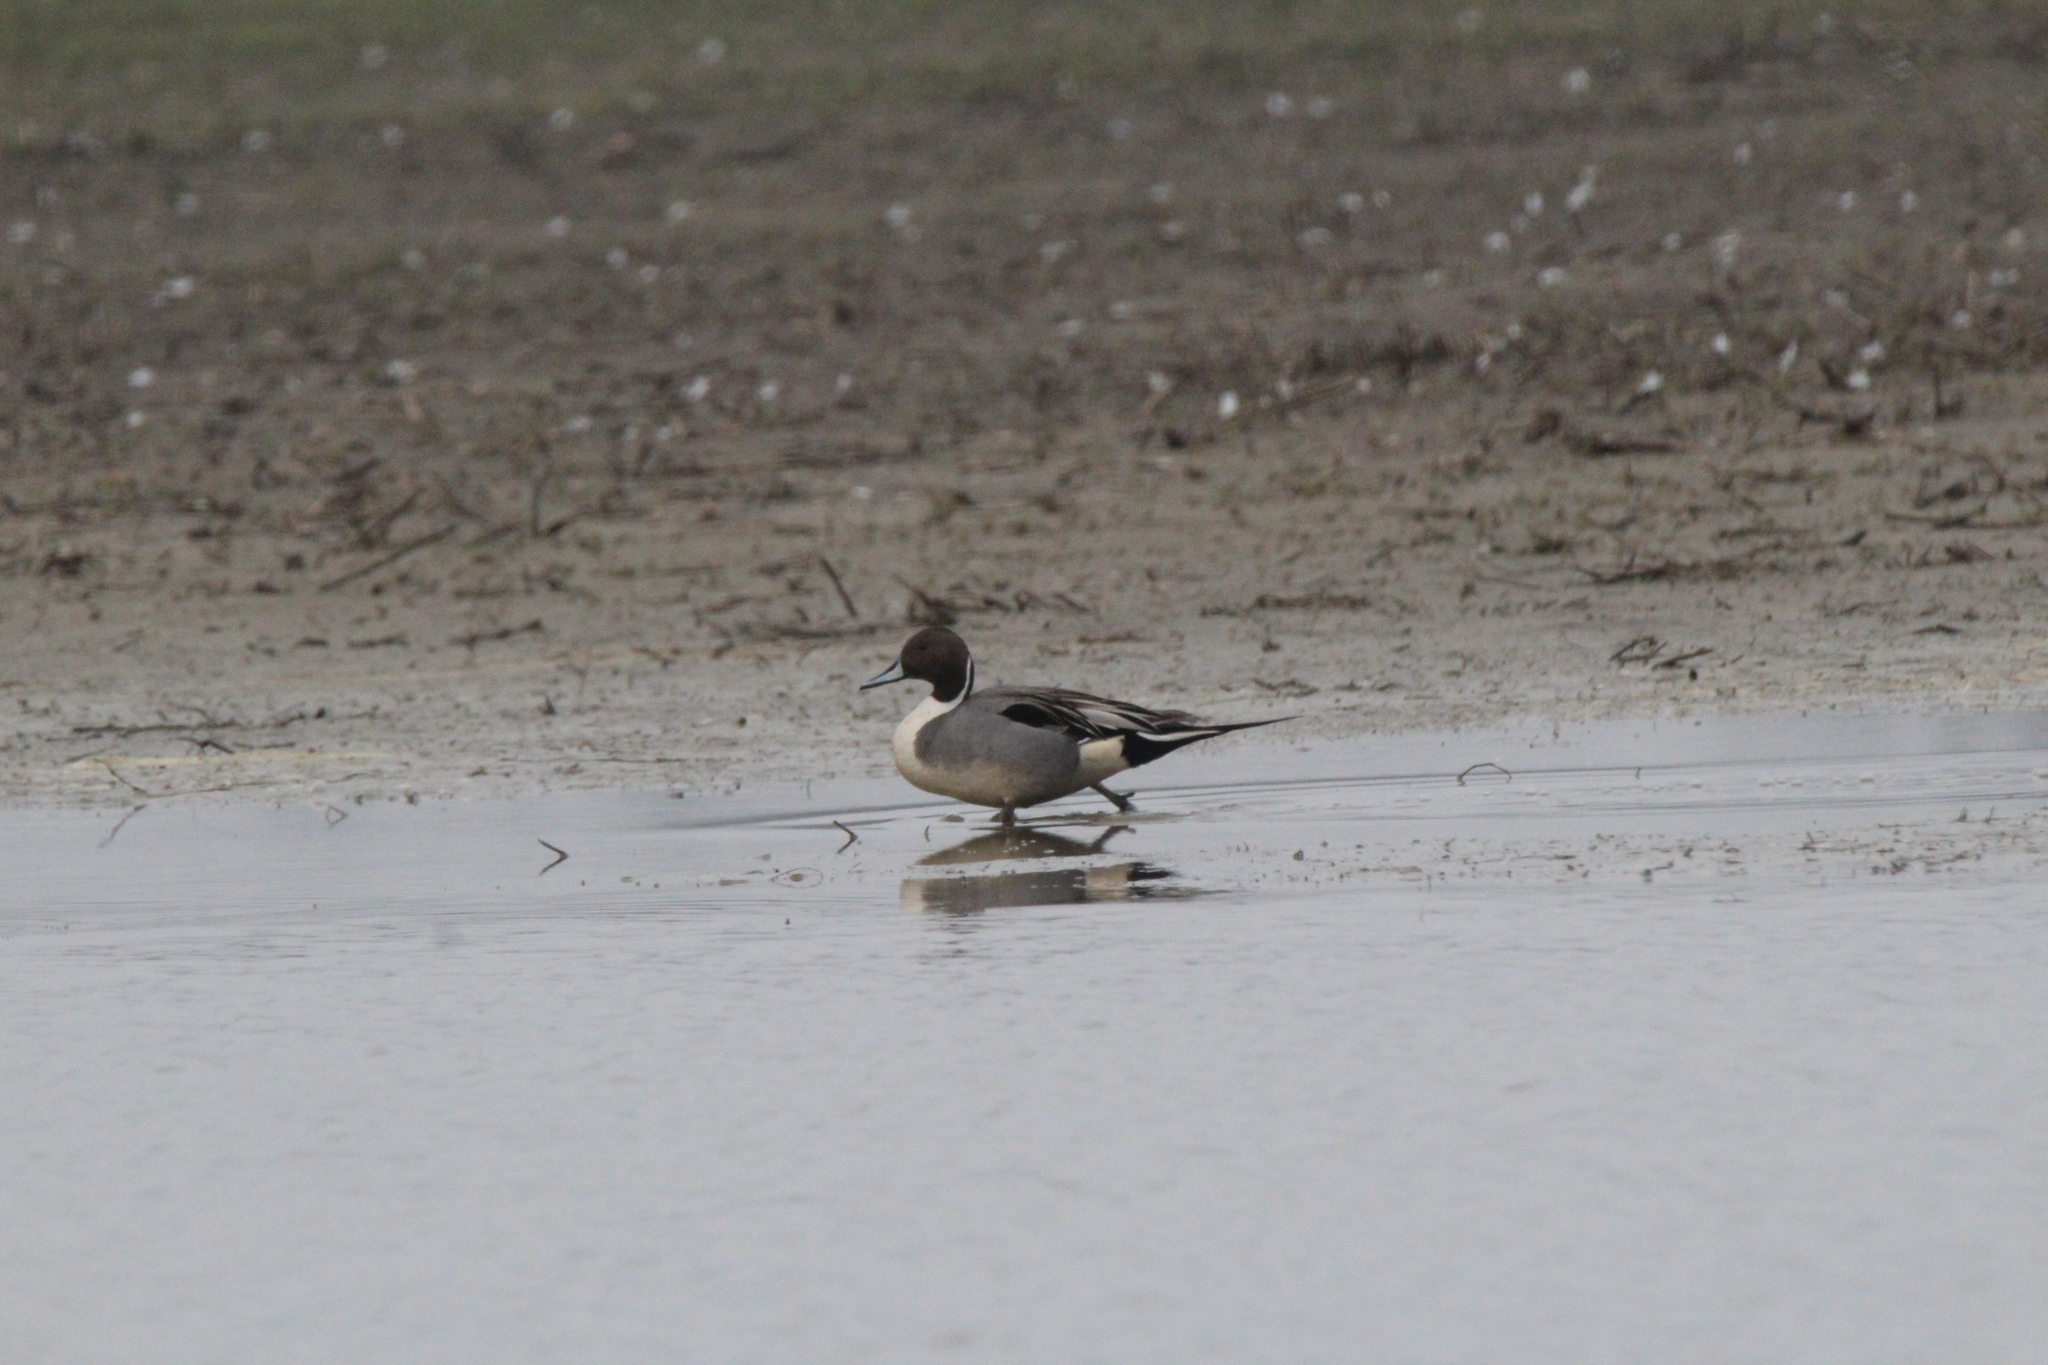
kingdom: Animalia
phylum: Chordata
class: Aves
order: Anseriformes
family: Anatidae
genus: Anas
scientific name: Anas acuta
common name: Northern pintail
